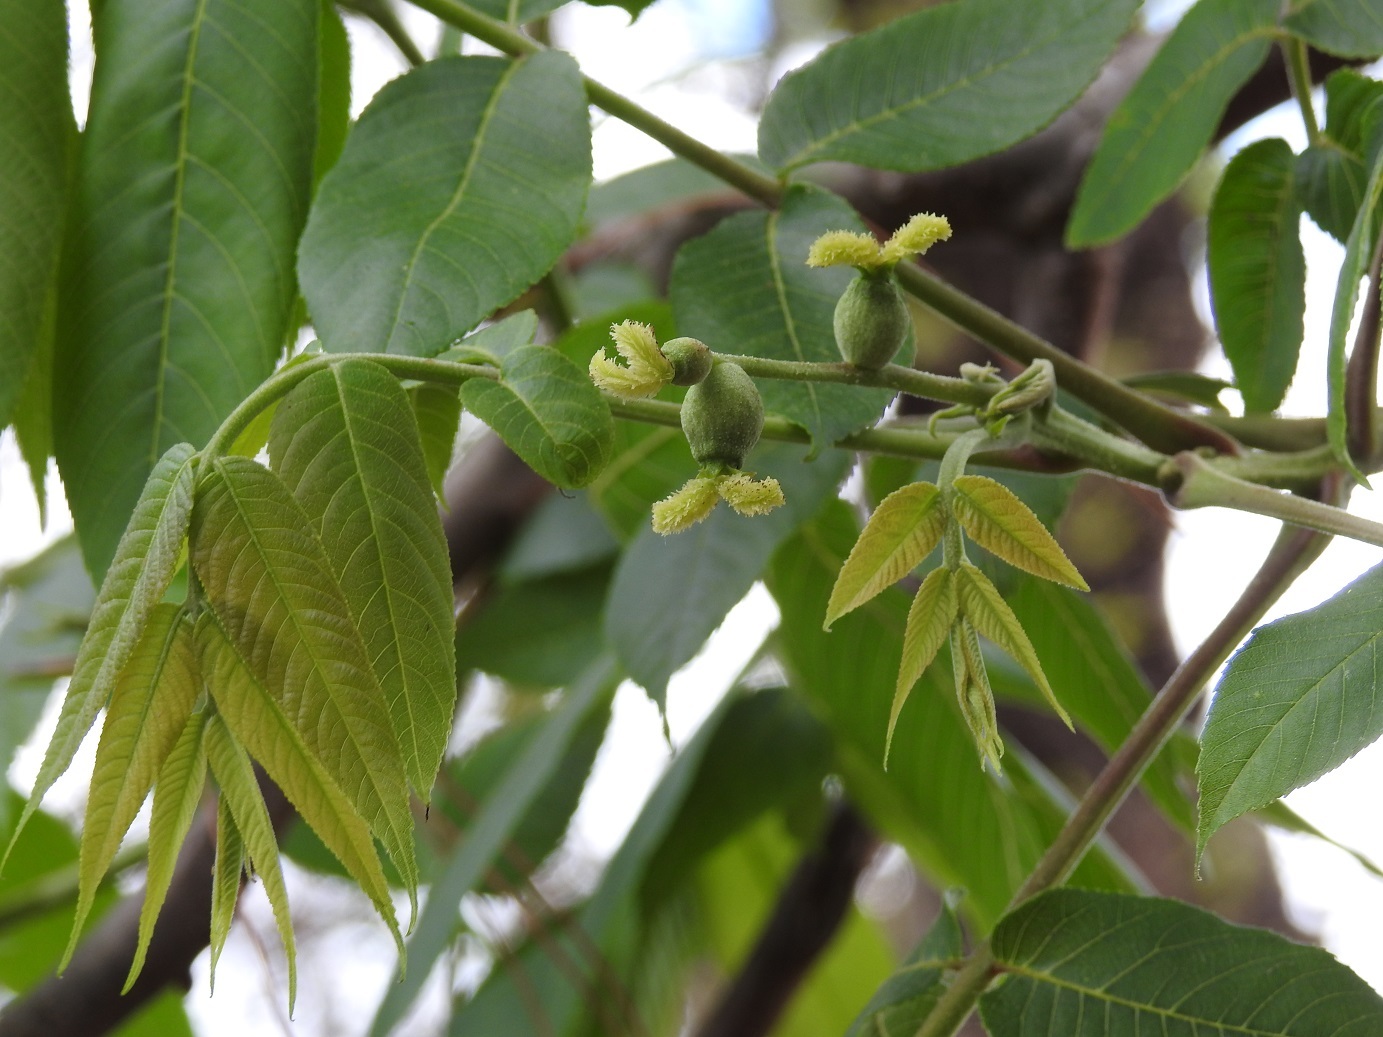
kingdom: Plantae
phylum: Tracheophyta
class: Magnoliopsida
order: Fagales
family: Juglandaceae
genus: Juglans
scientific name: Juglans olanchana
